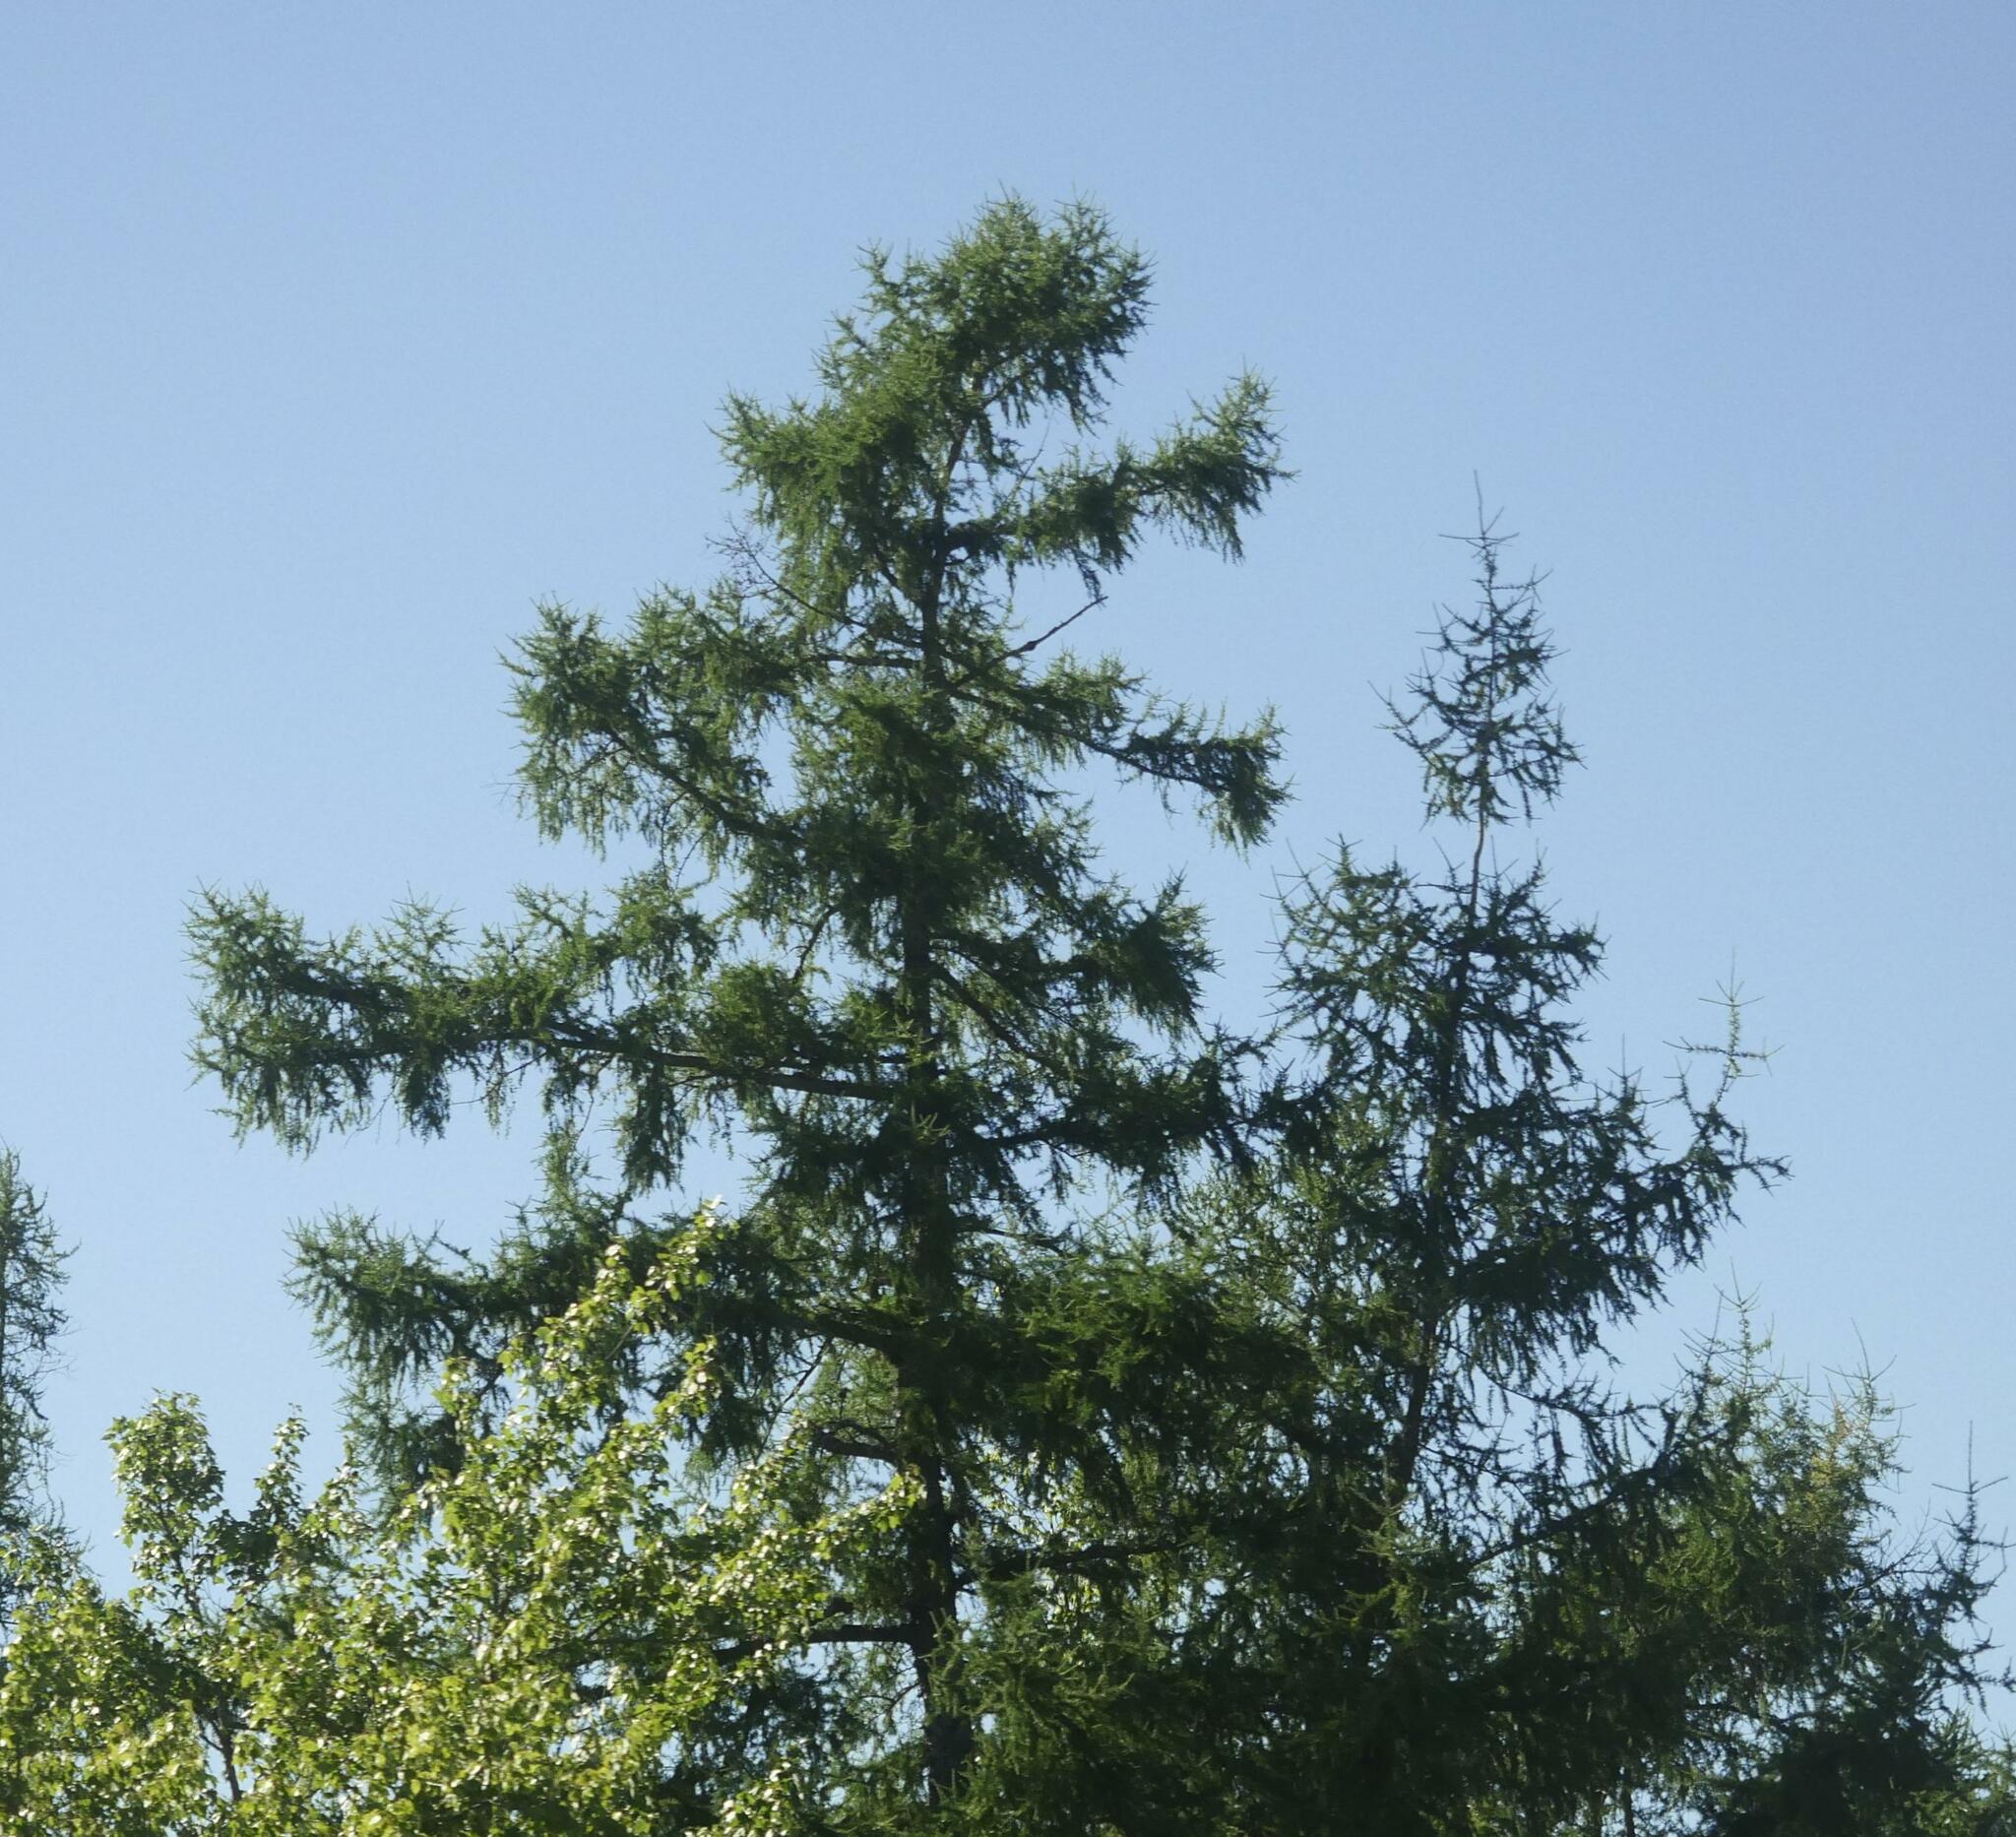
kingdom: Plantae
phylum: Tracheophyta
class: Pinopsida
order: Pinales
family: Pinaceae
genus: Larix
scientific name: Larix laricina
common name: American larch
